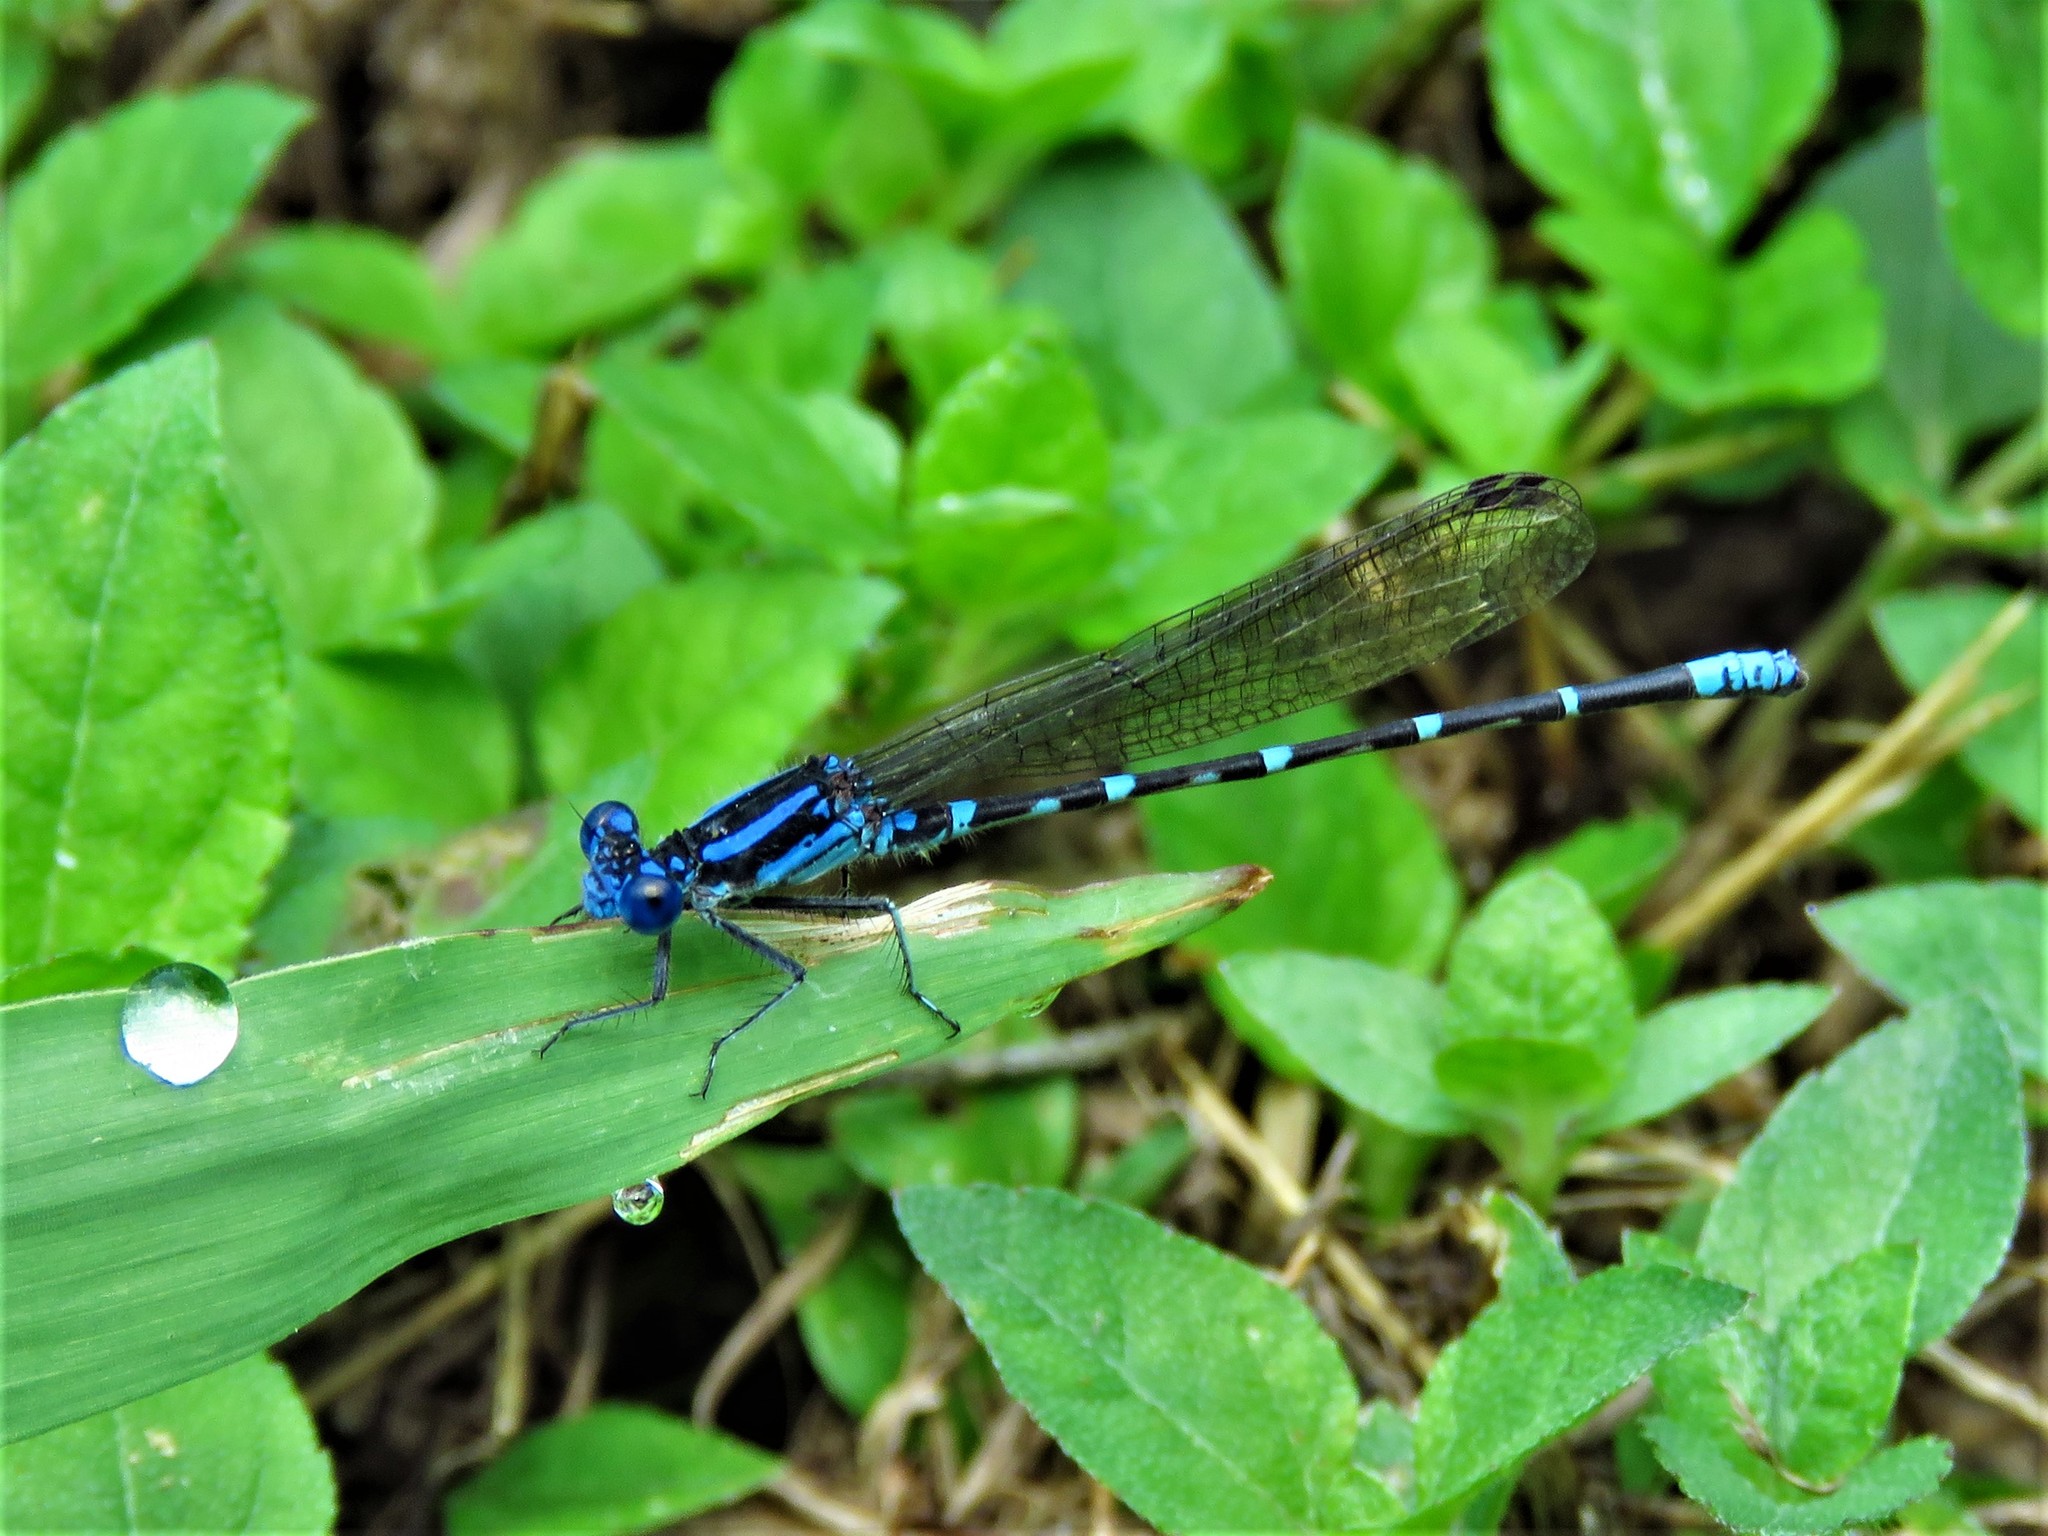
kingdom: Animalia
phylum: Arthropoda
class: Insecta
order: Odonata
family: Coenagrionidae
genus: Argia
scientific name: Argia sedula
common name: Blue-ringed dancer
